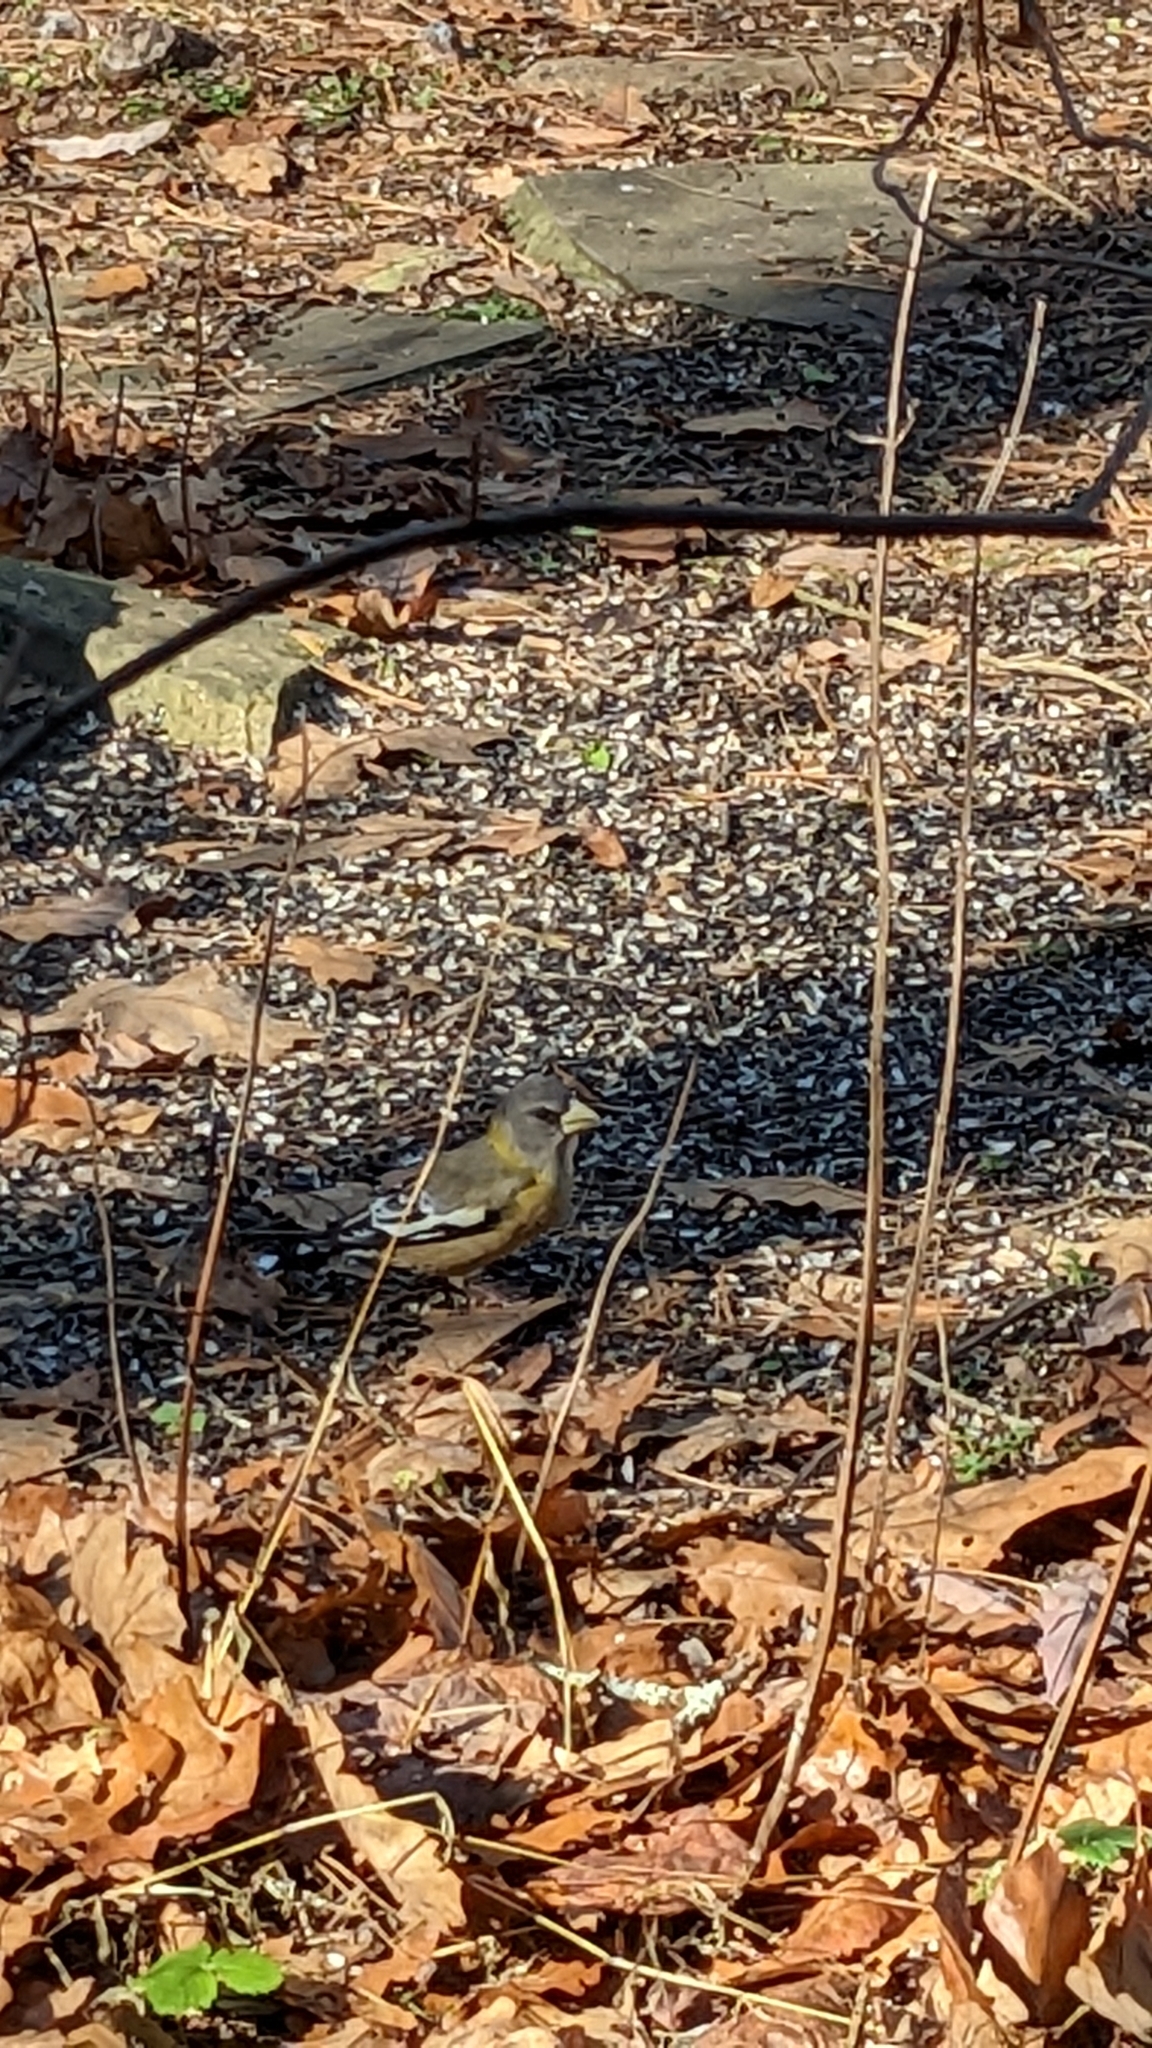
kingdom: Animalia
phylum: Chordata
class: Aves
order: Passeriformes
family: Fringillidae
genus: Hesperiphona
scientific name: Hesperiphona vespertina
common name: Evening grosbeak
